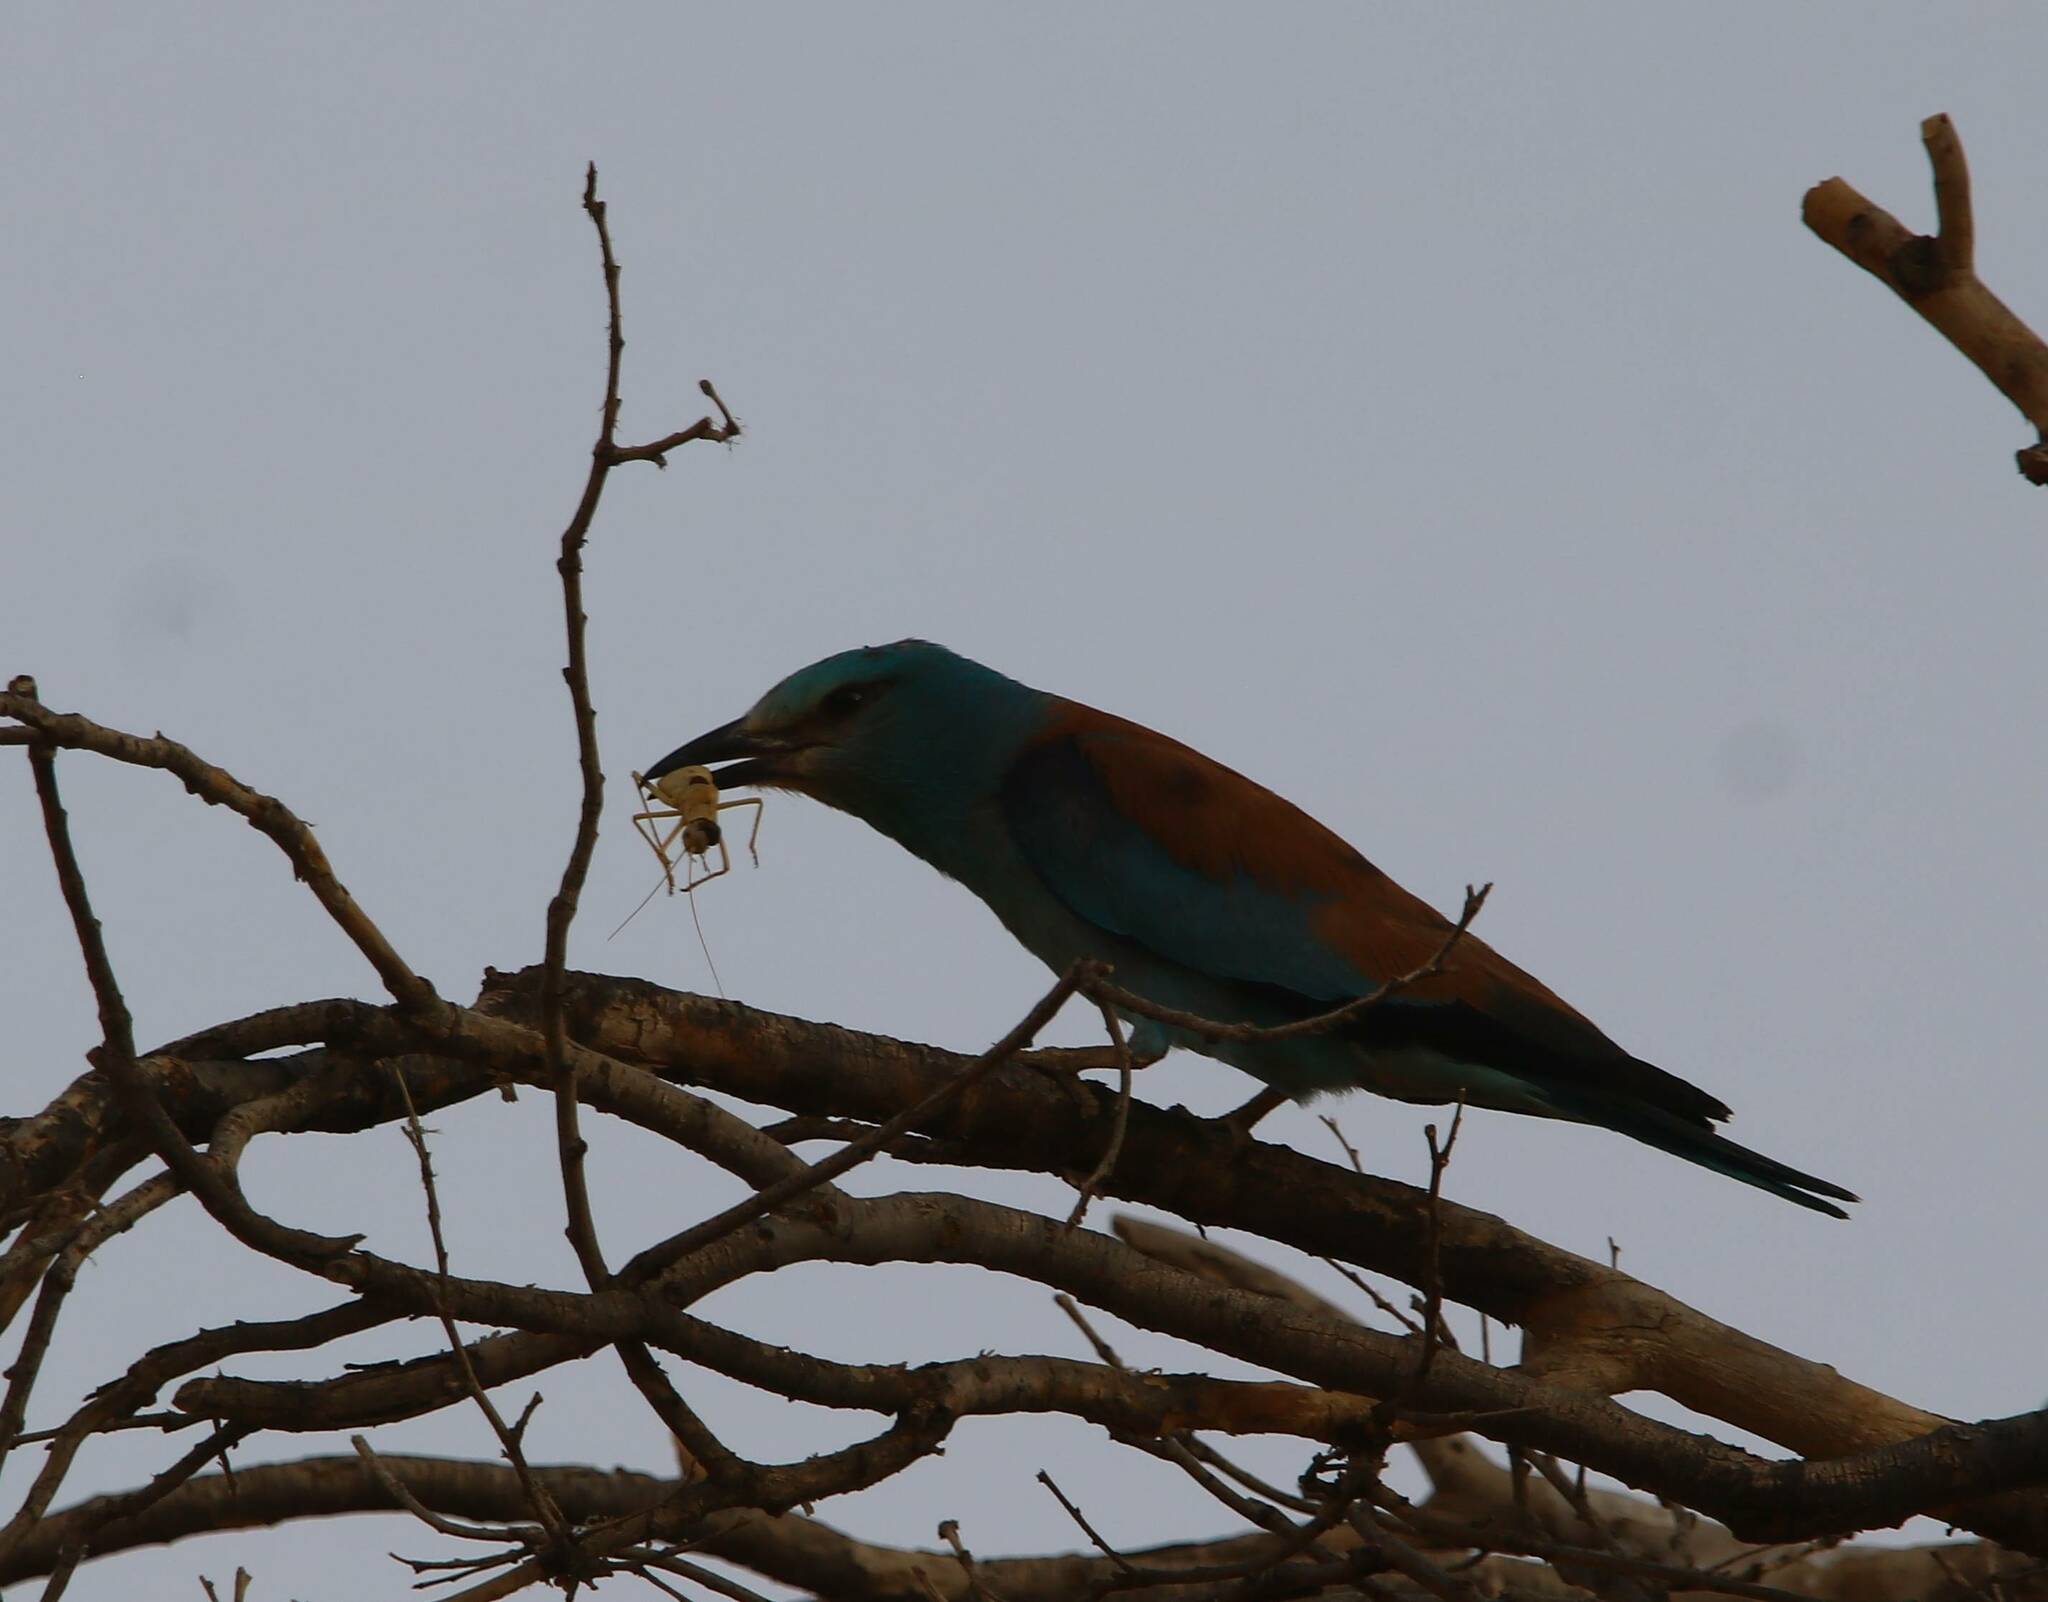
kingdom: Animalia
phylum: Chordata
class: Aves
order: Coraciiformes
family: Coraciidae
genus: Coracias
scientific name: Coracias garrulus
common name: European roller
